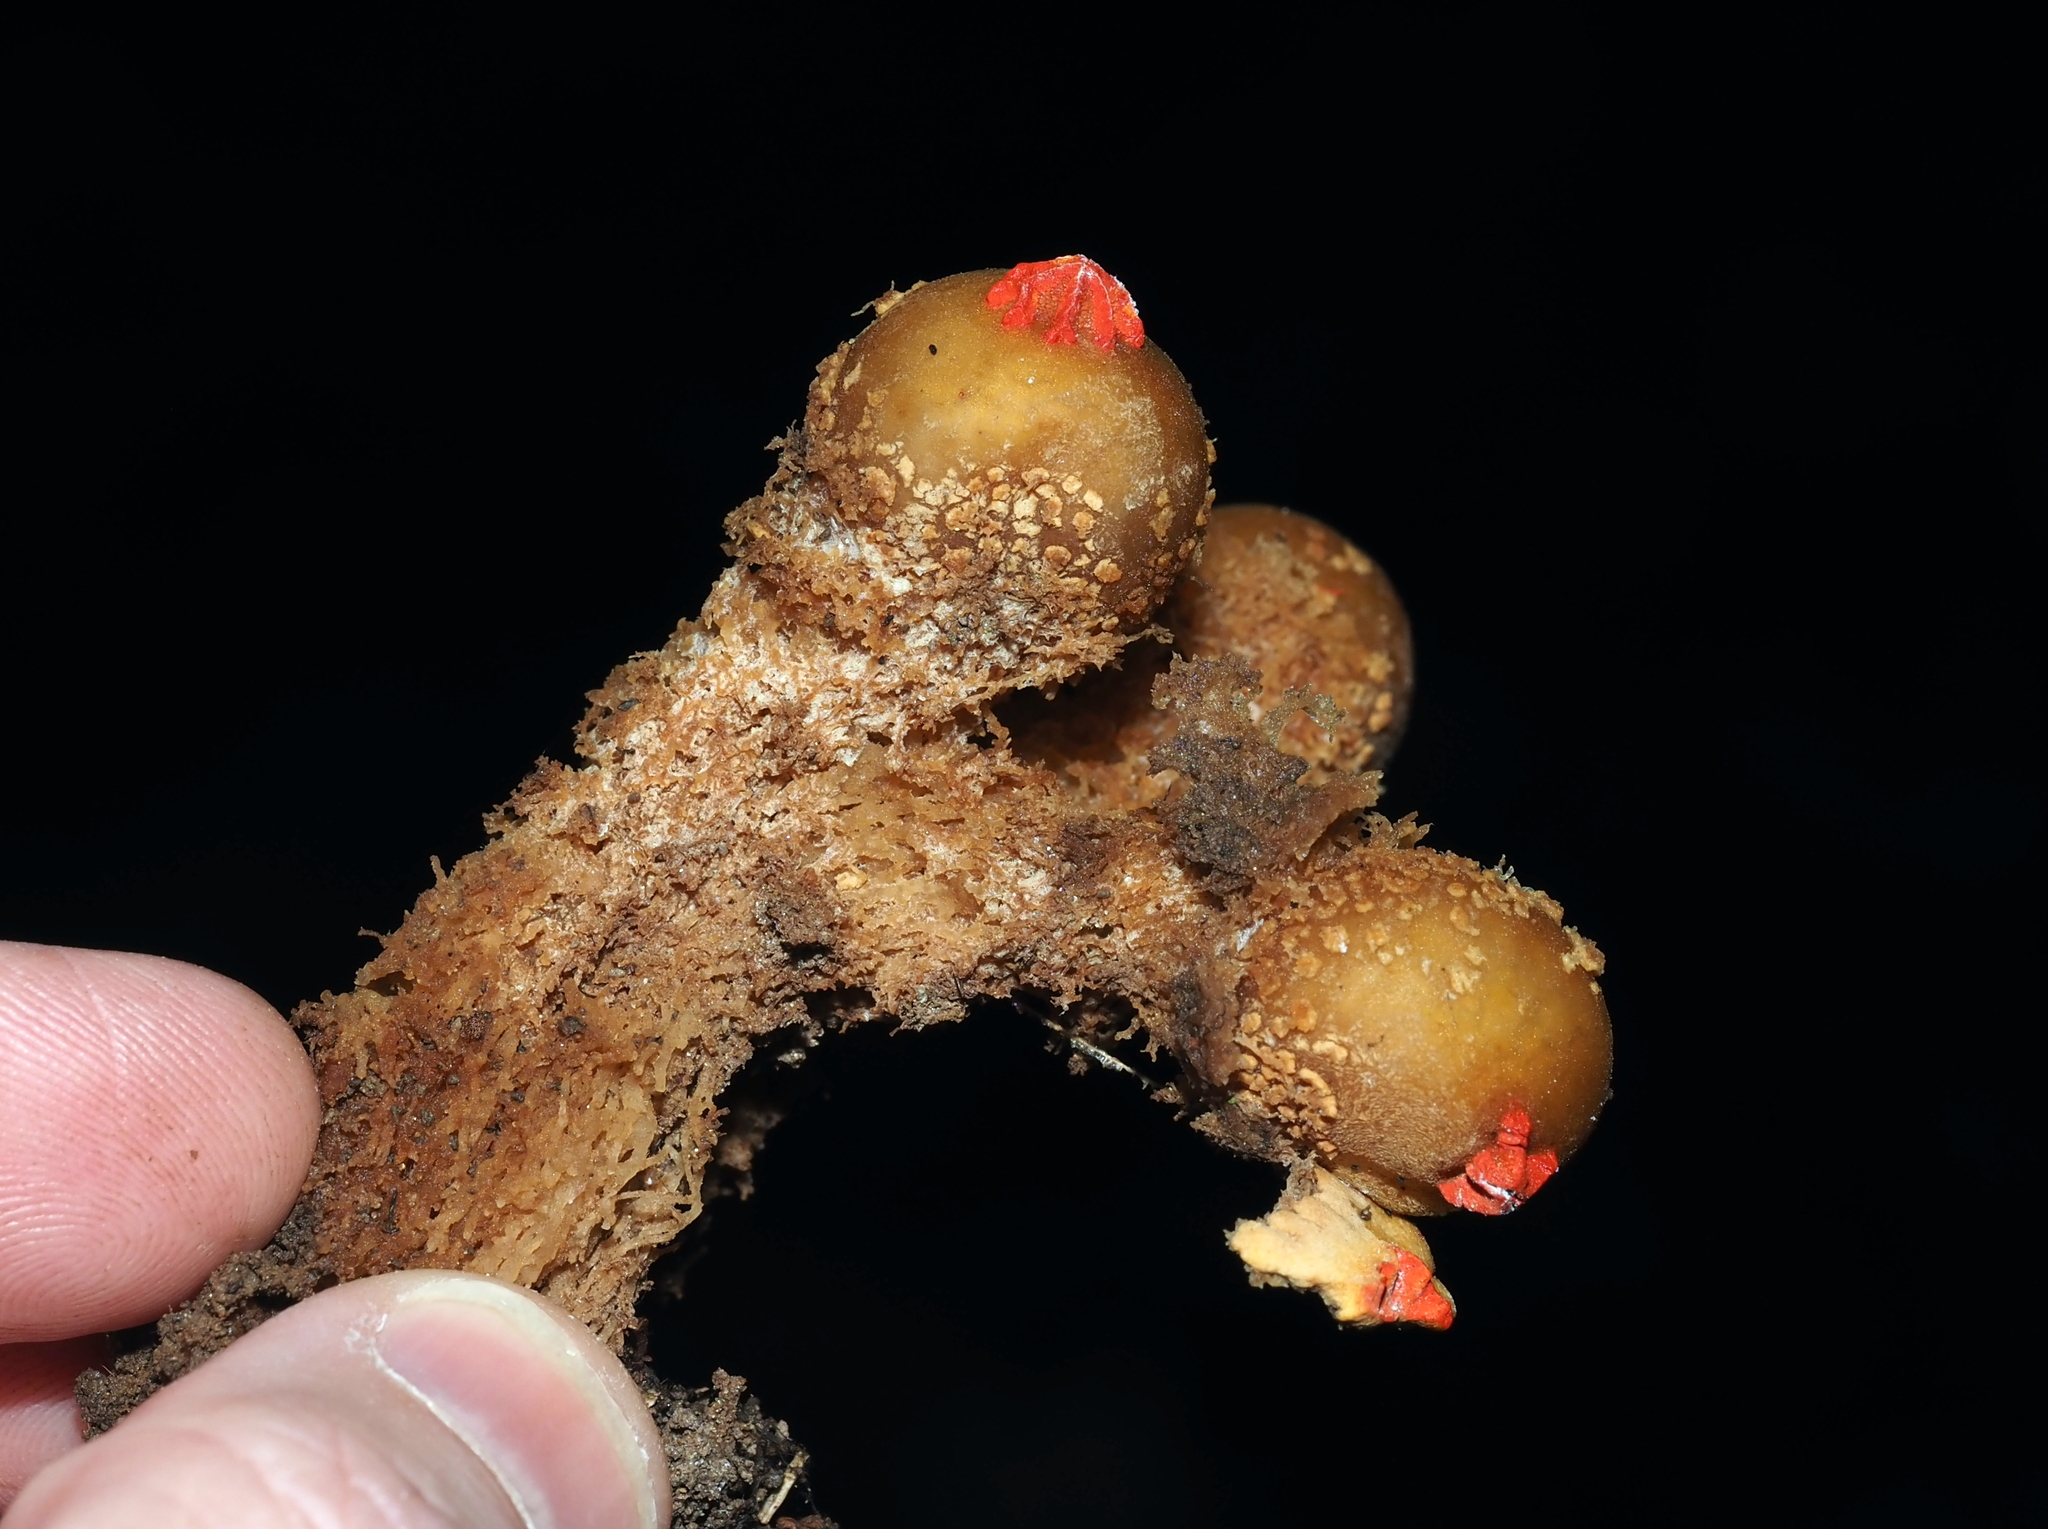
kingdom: Fungi
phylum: Basidiomycota
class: Agaricomycetes
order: Boletales
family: Calostomataceae
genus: Calostoma
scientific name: Calostoma ravenelii
